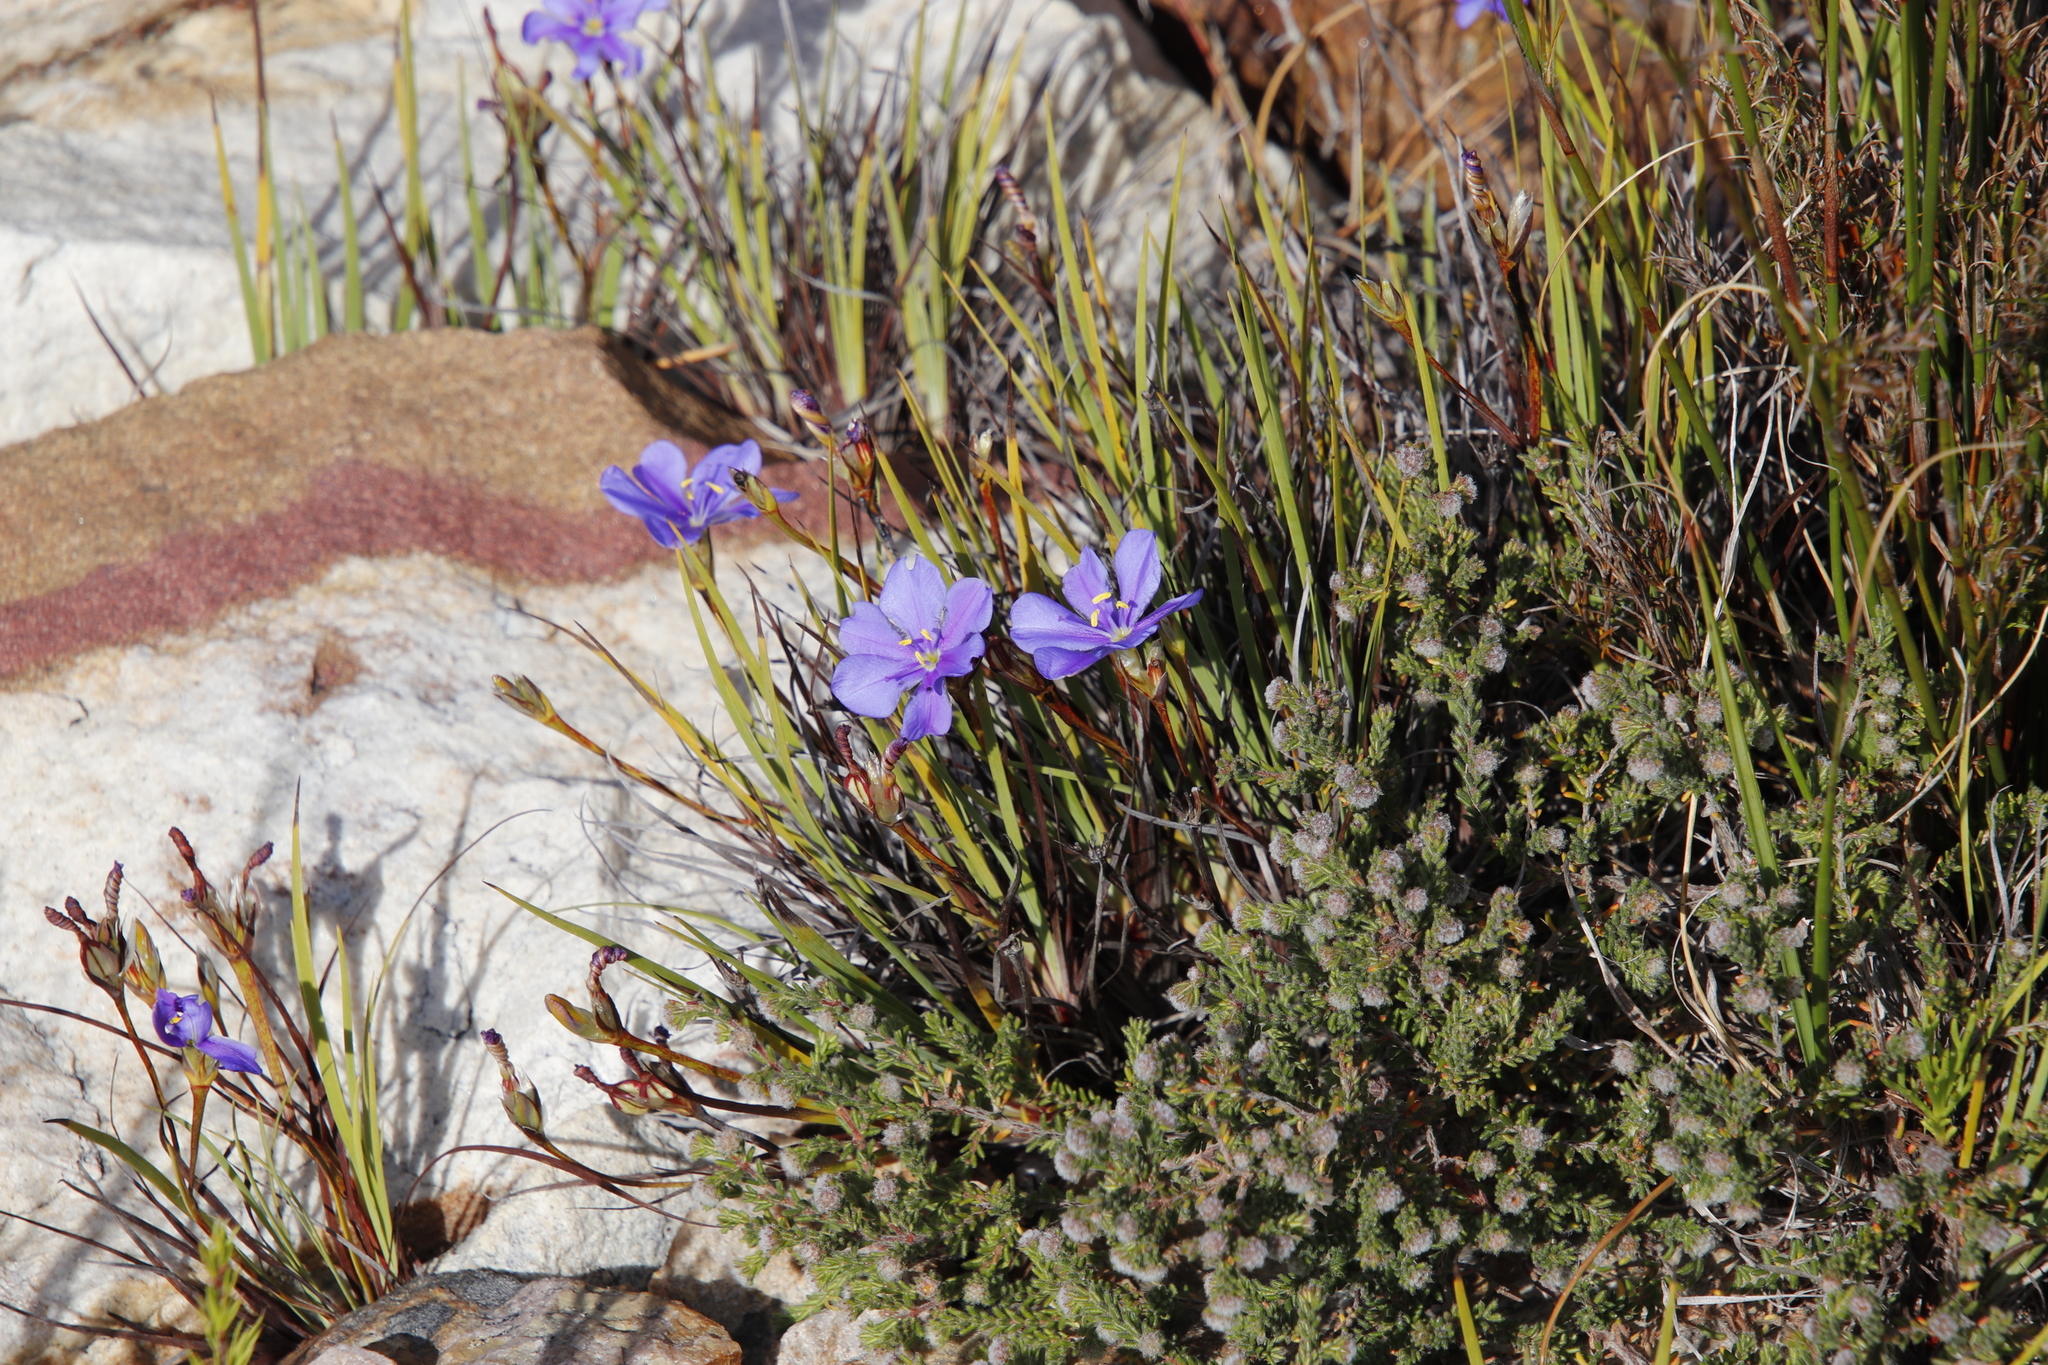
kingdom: Plantae
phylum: Tracheophyta
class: Liliopsida
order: Asparagales
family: Iridaceae
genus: Aristea
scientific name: Aristea glauca
